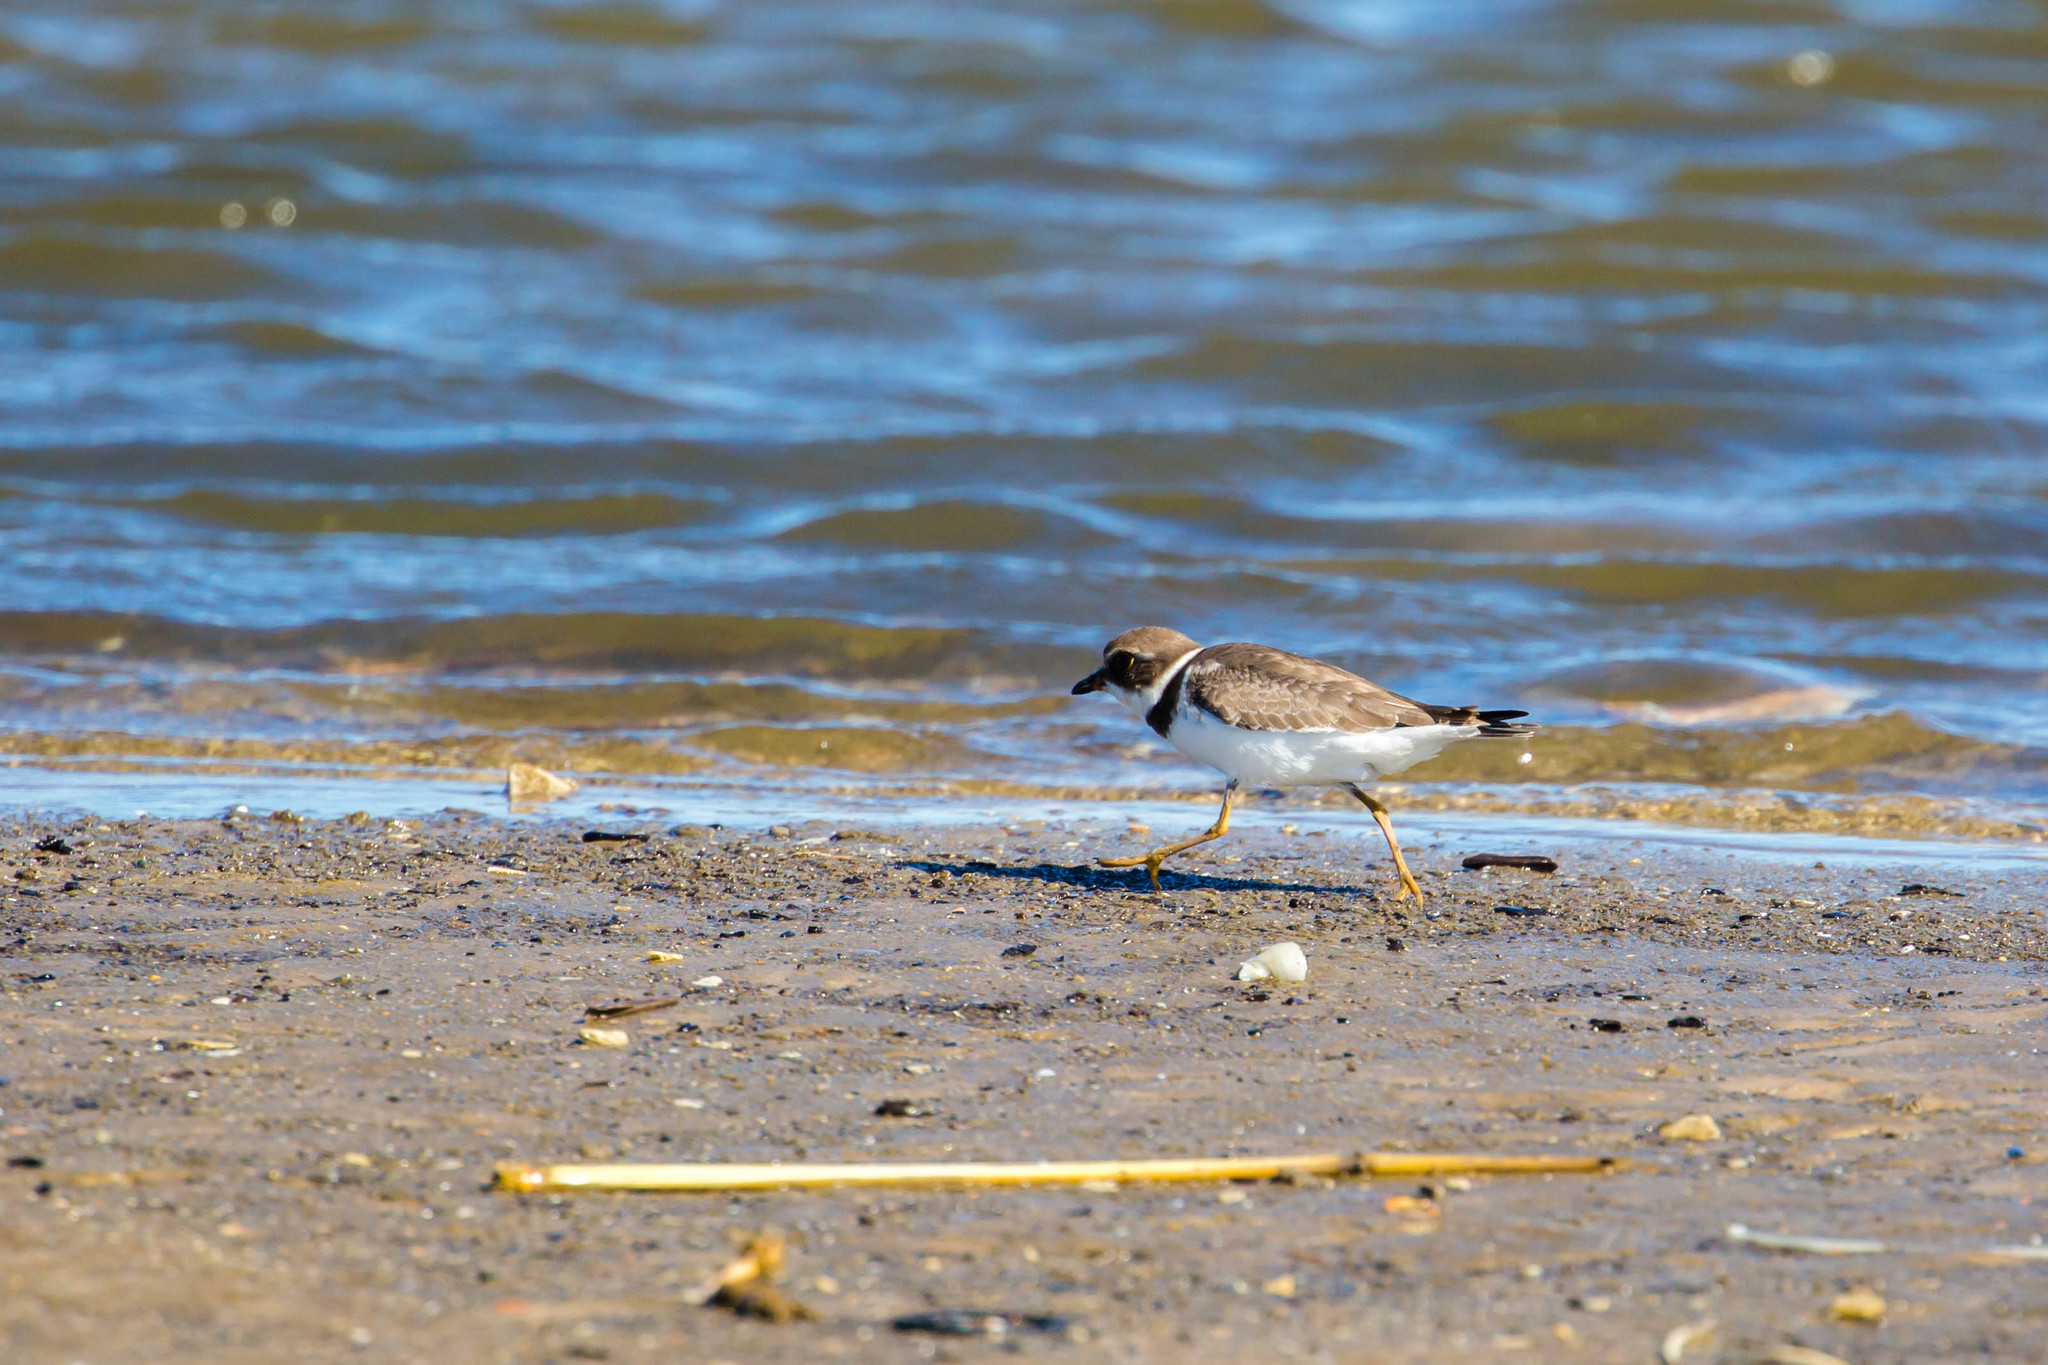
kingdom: Animalia
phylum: Chordata
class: Aves
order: Charadriiformes
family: Charadriidae
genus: Charadrius
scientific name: Charadrius semipalmatus
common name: Semipalmated plover
